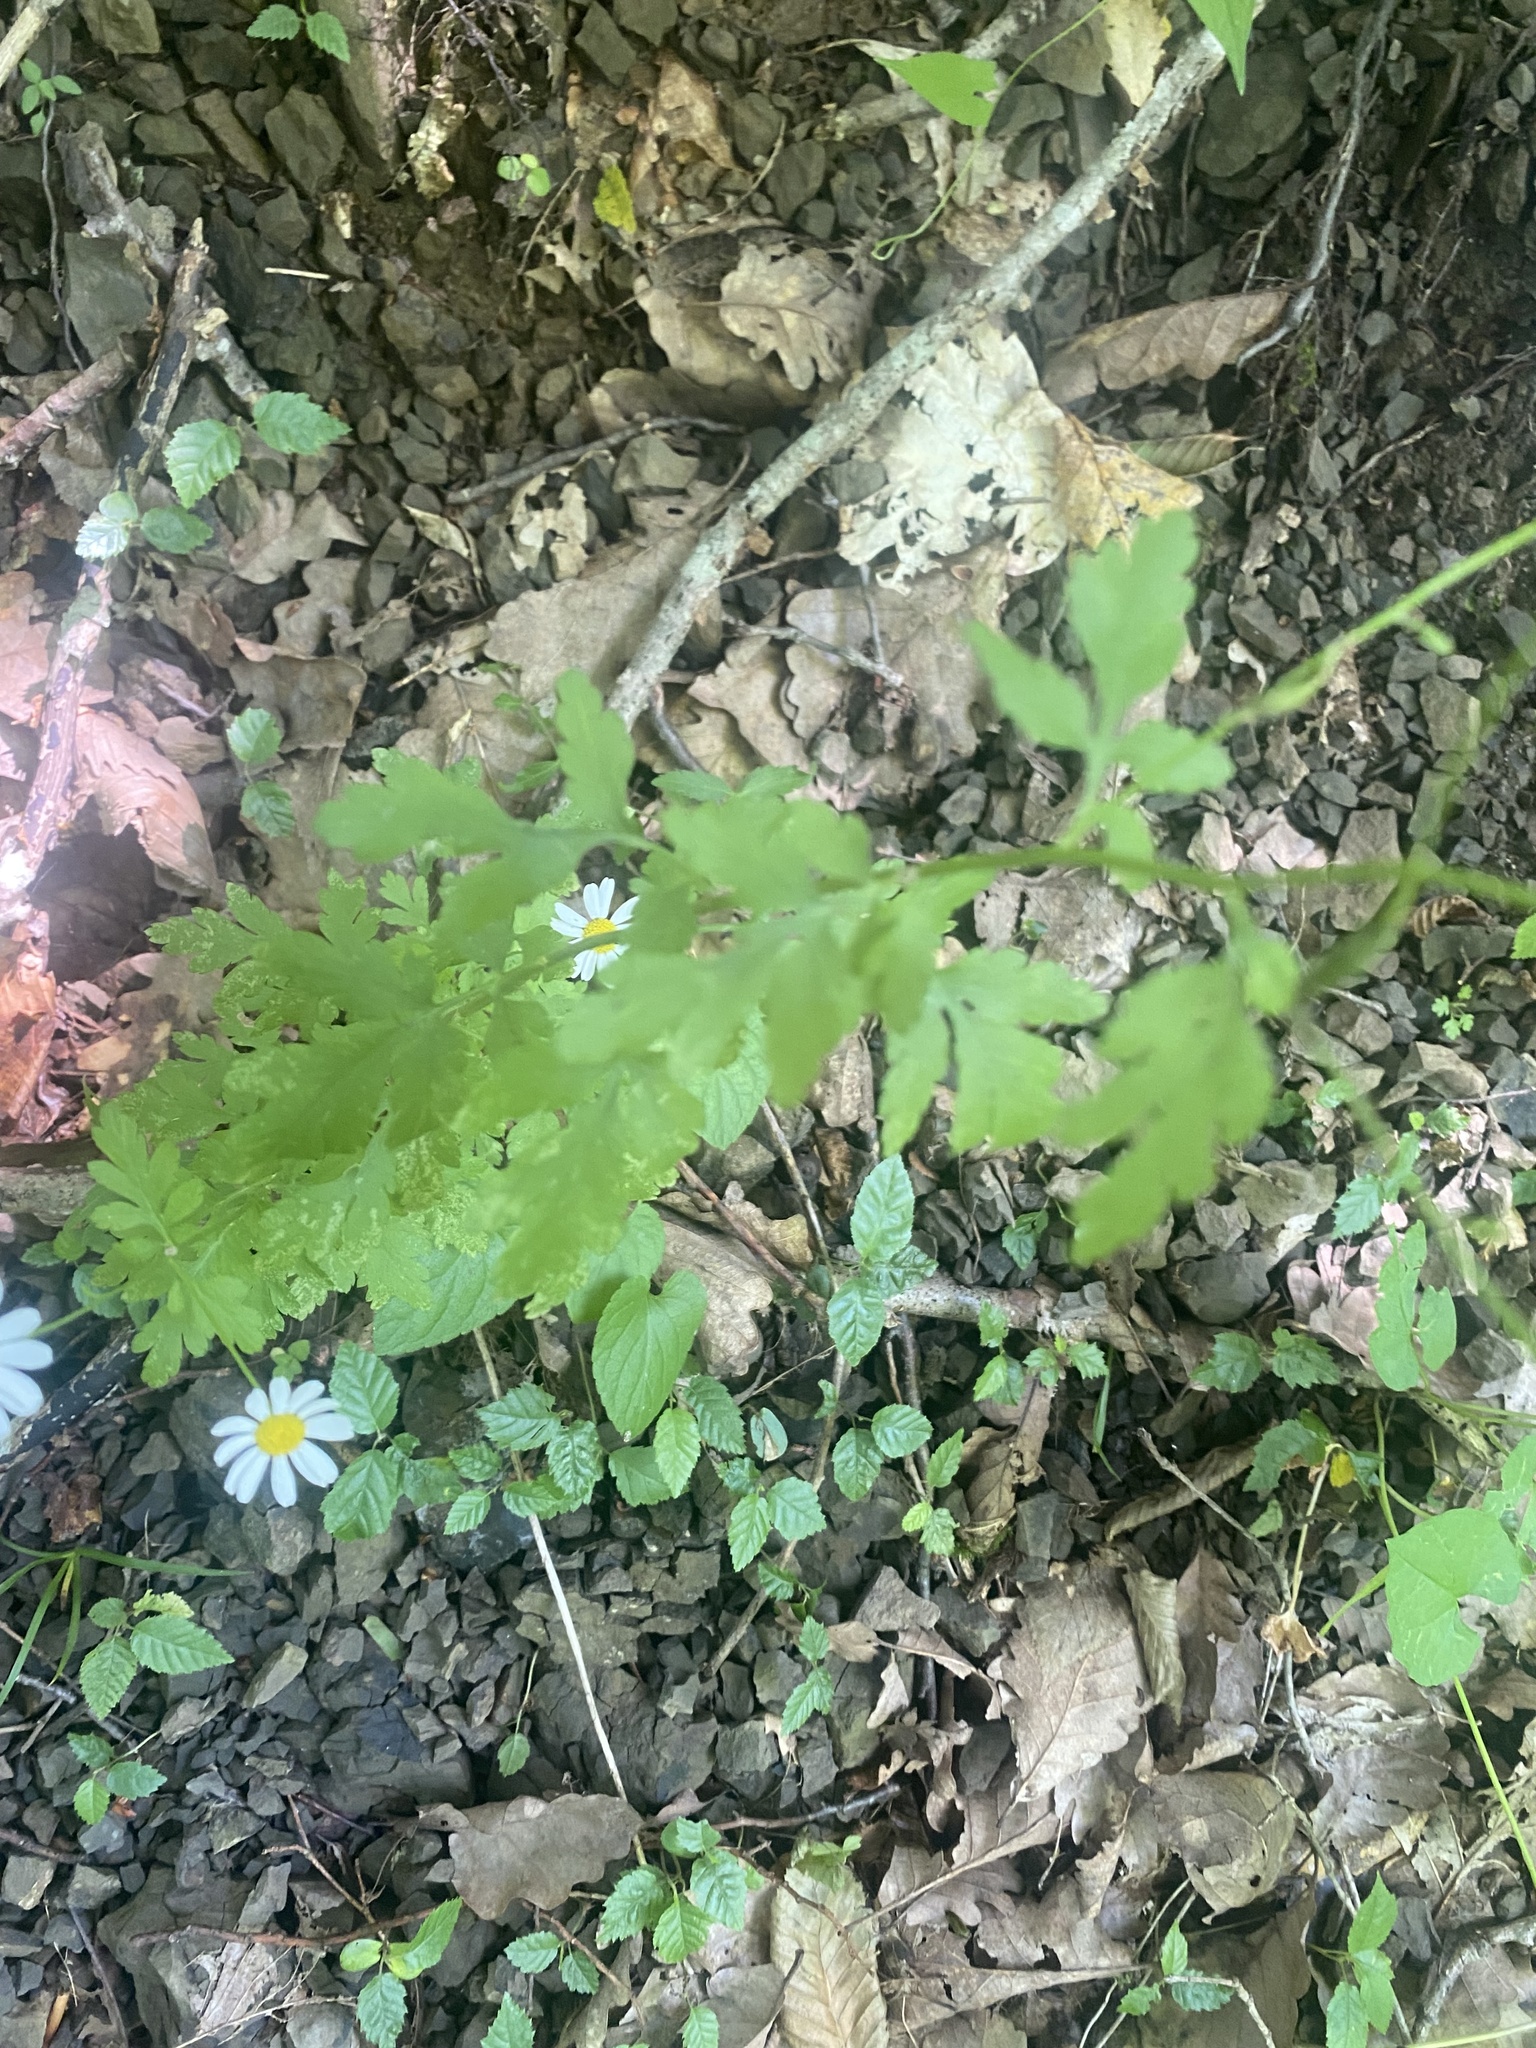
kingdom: Plantae
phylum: Tracheophyta
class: Magnoliopsida
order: Asterales
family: Asteraceae
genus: Tanacetum
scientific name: Tanacetum partheniifolium
